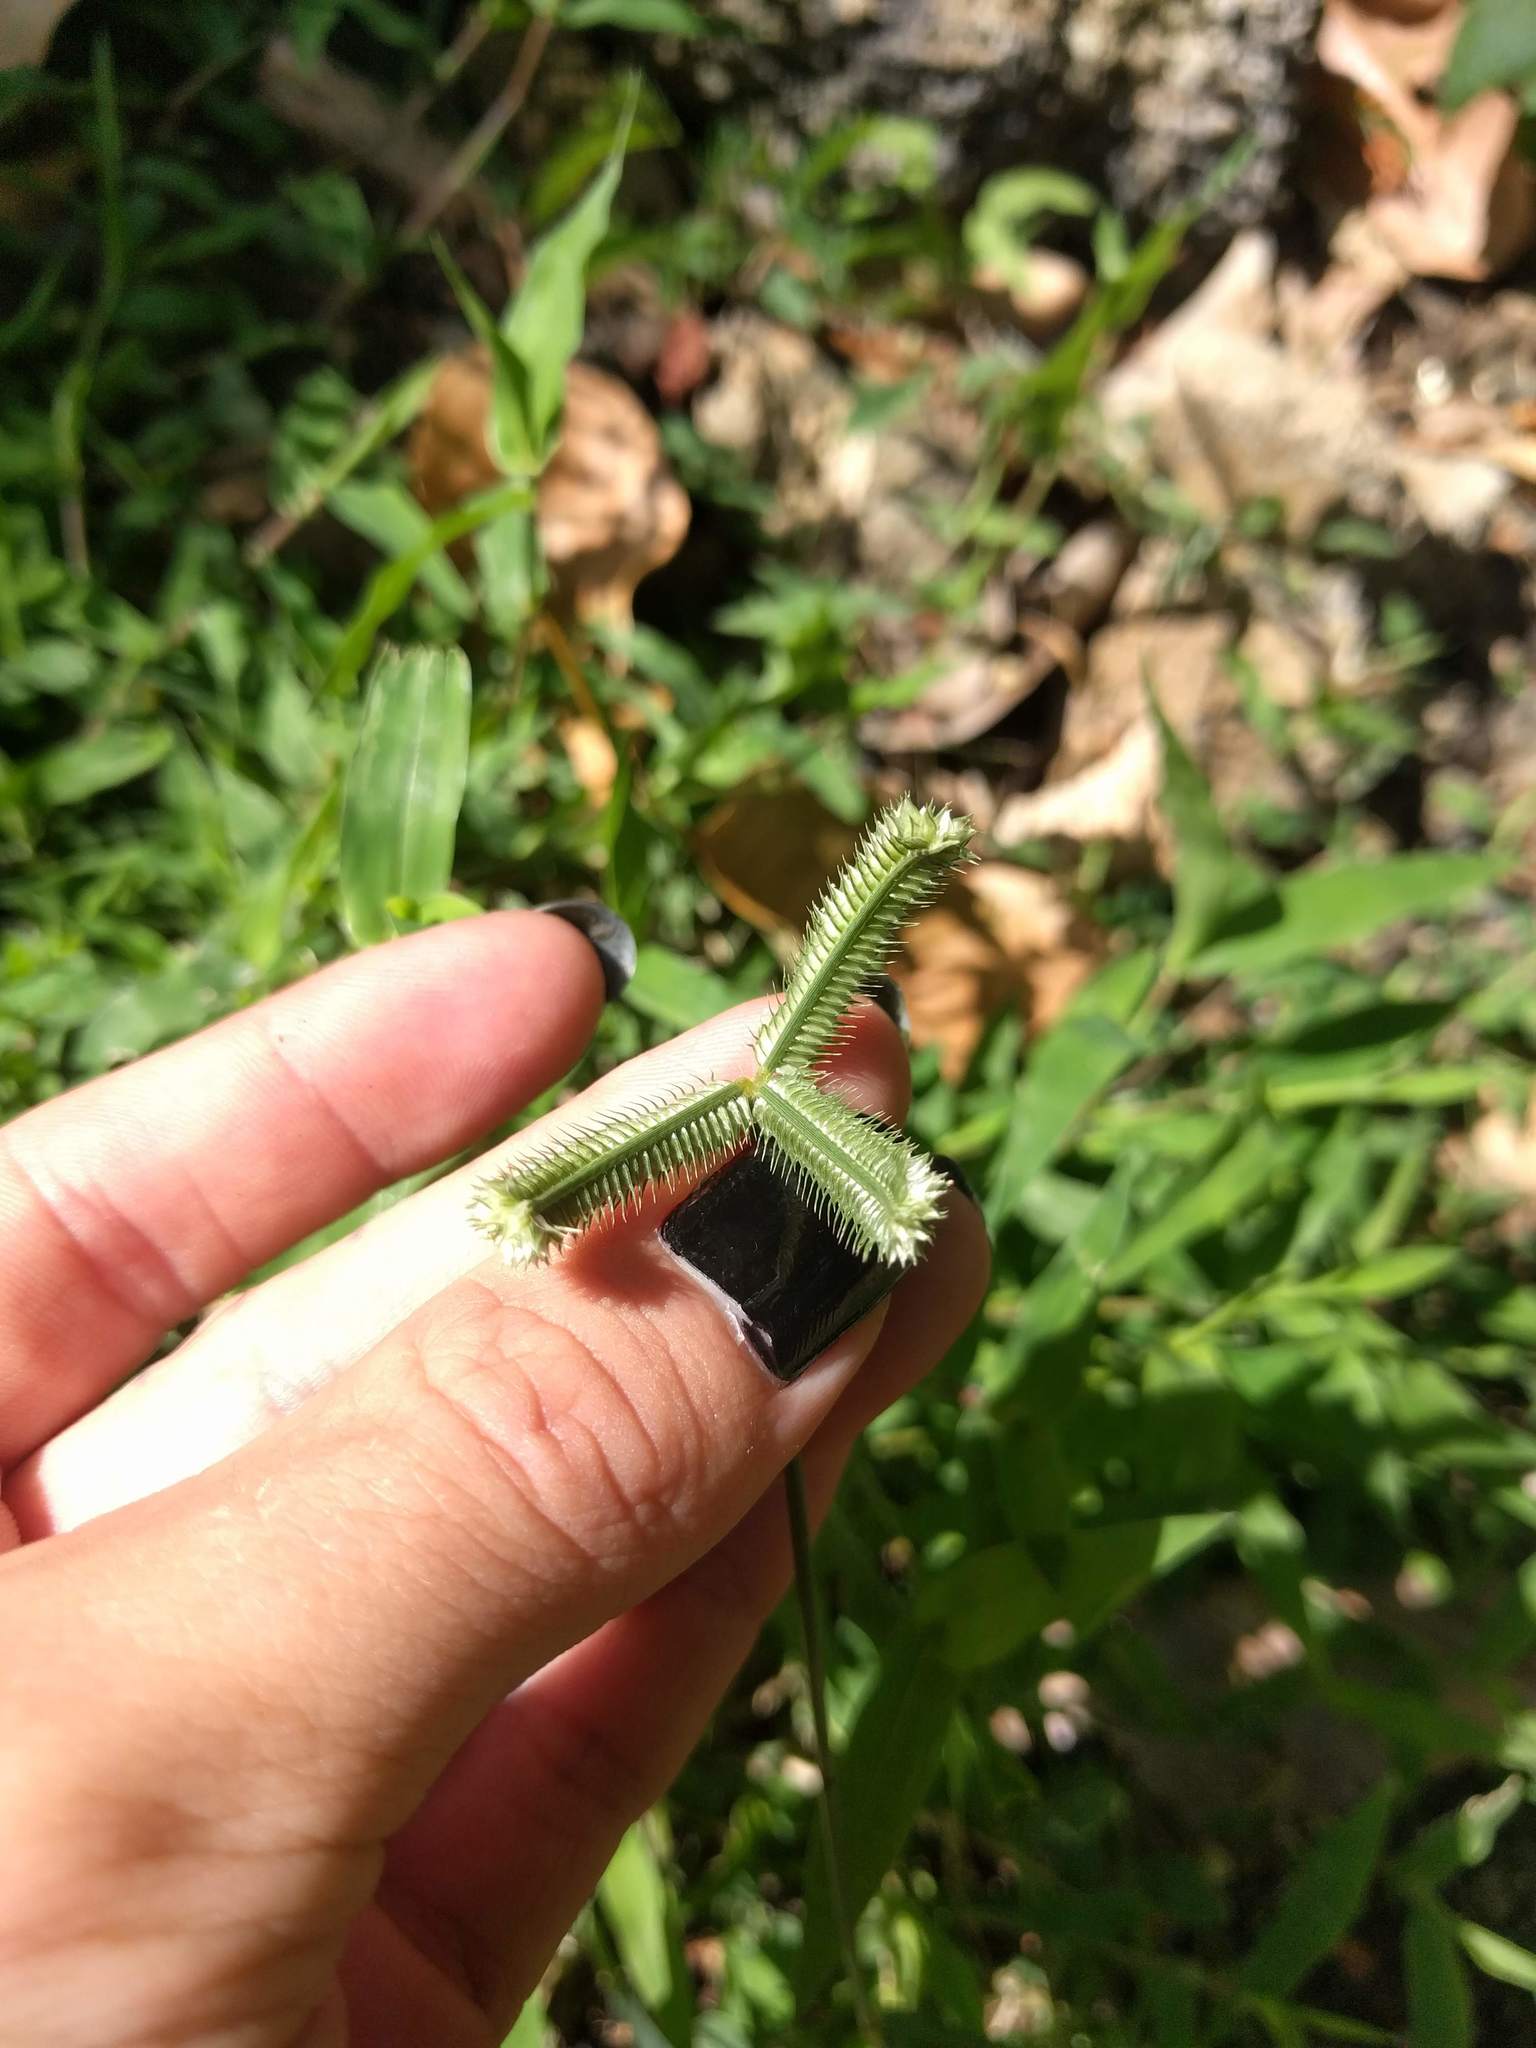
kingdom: Plantae
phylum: Tracheophyta
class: Liliopsida
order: Poales
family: Poaceae
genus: Dactyloctenium
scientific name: Dactyloctenium aegyptium
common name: Egyptian grass
